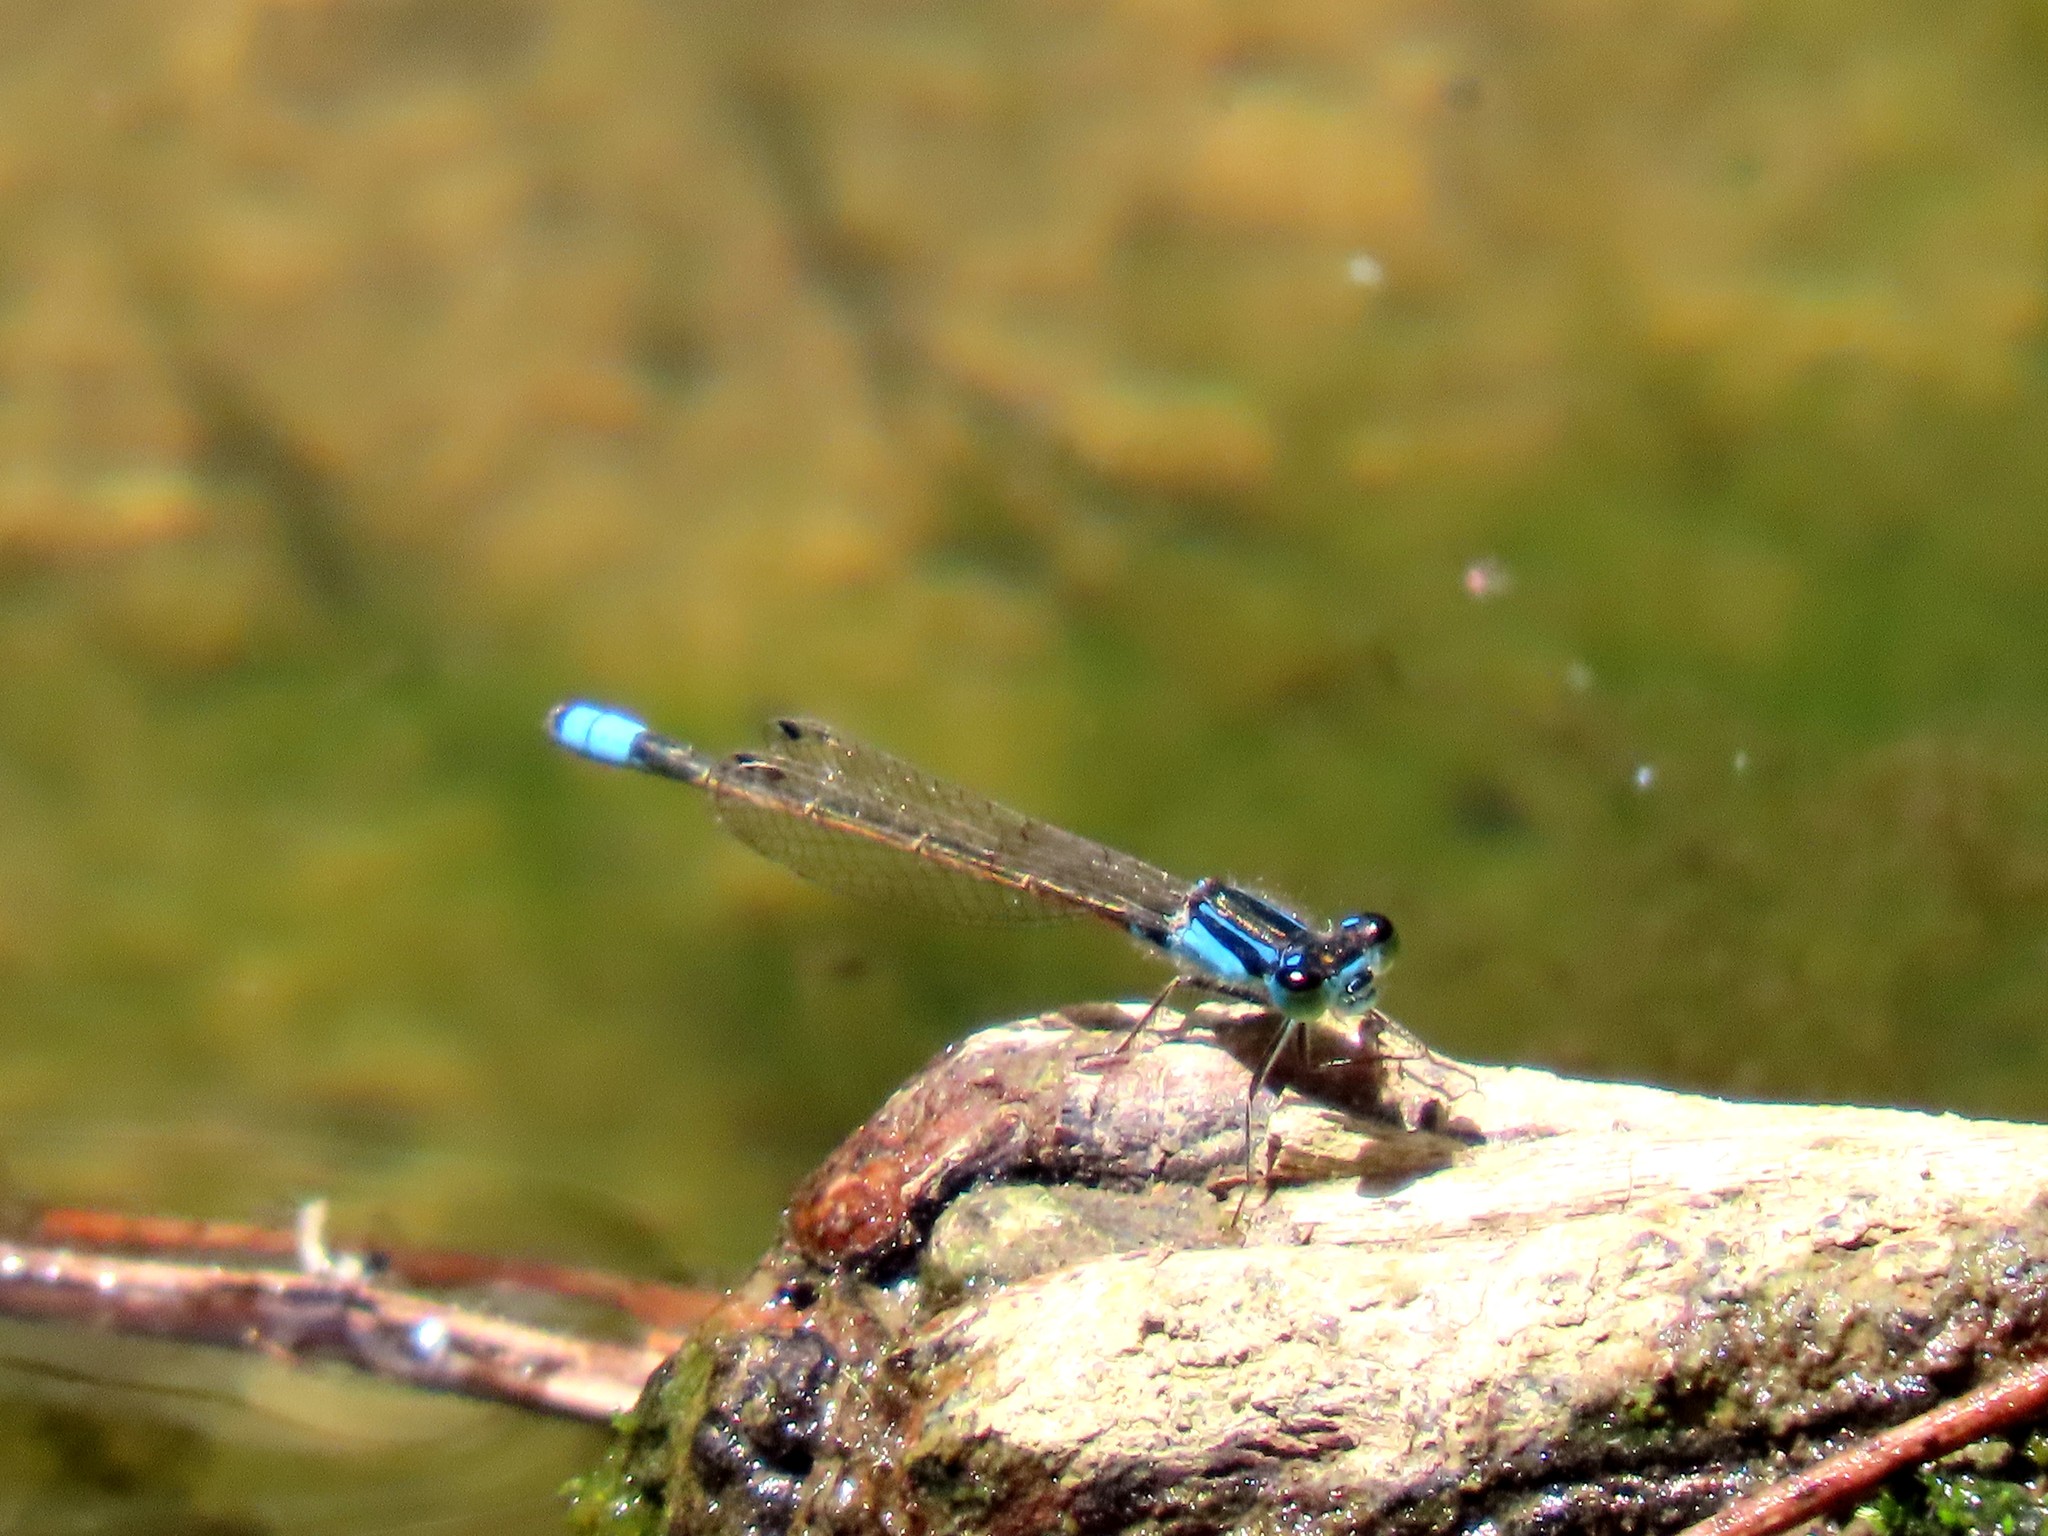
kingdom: Animalia
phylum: Arthropoda
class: Insecta
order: Odonata
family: Coenagrionidae
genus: Ischnura
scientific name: Ischnura heterosticta
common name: Common bluetail
